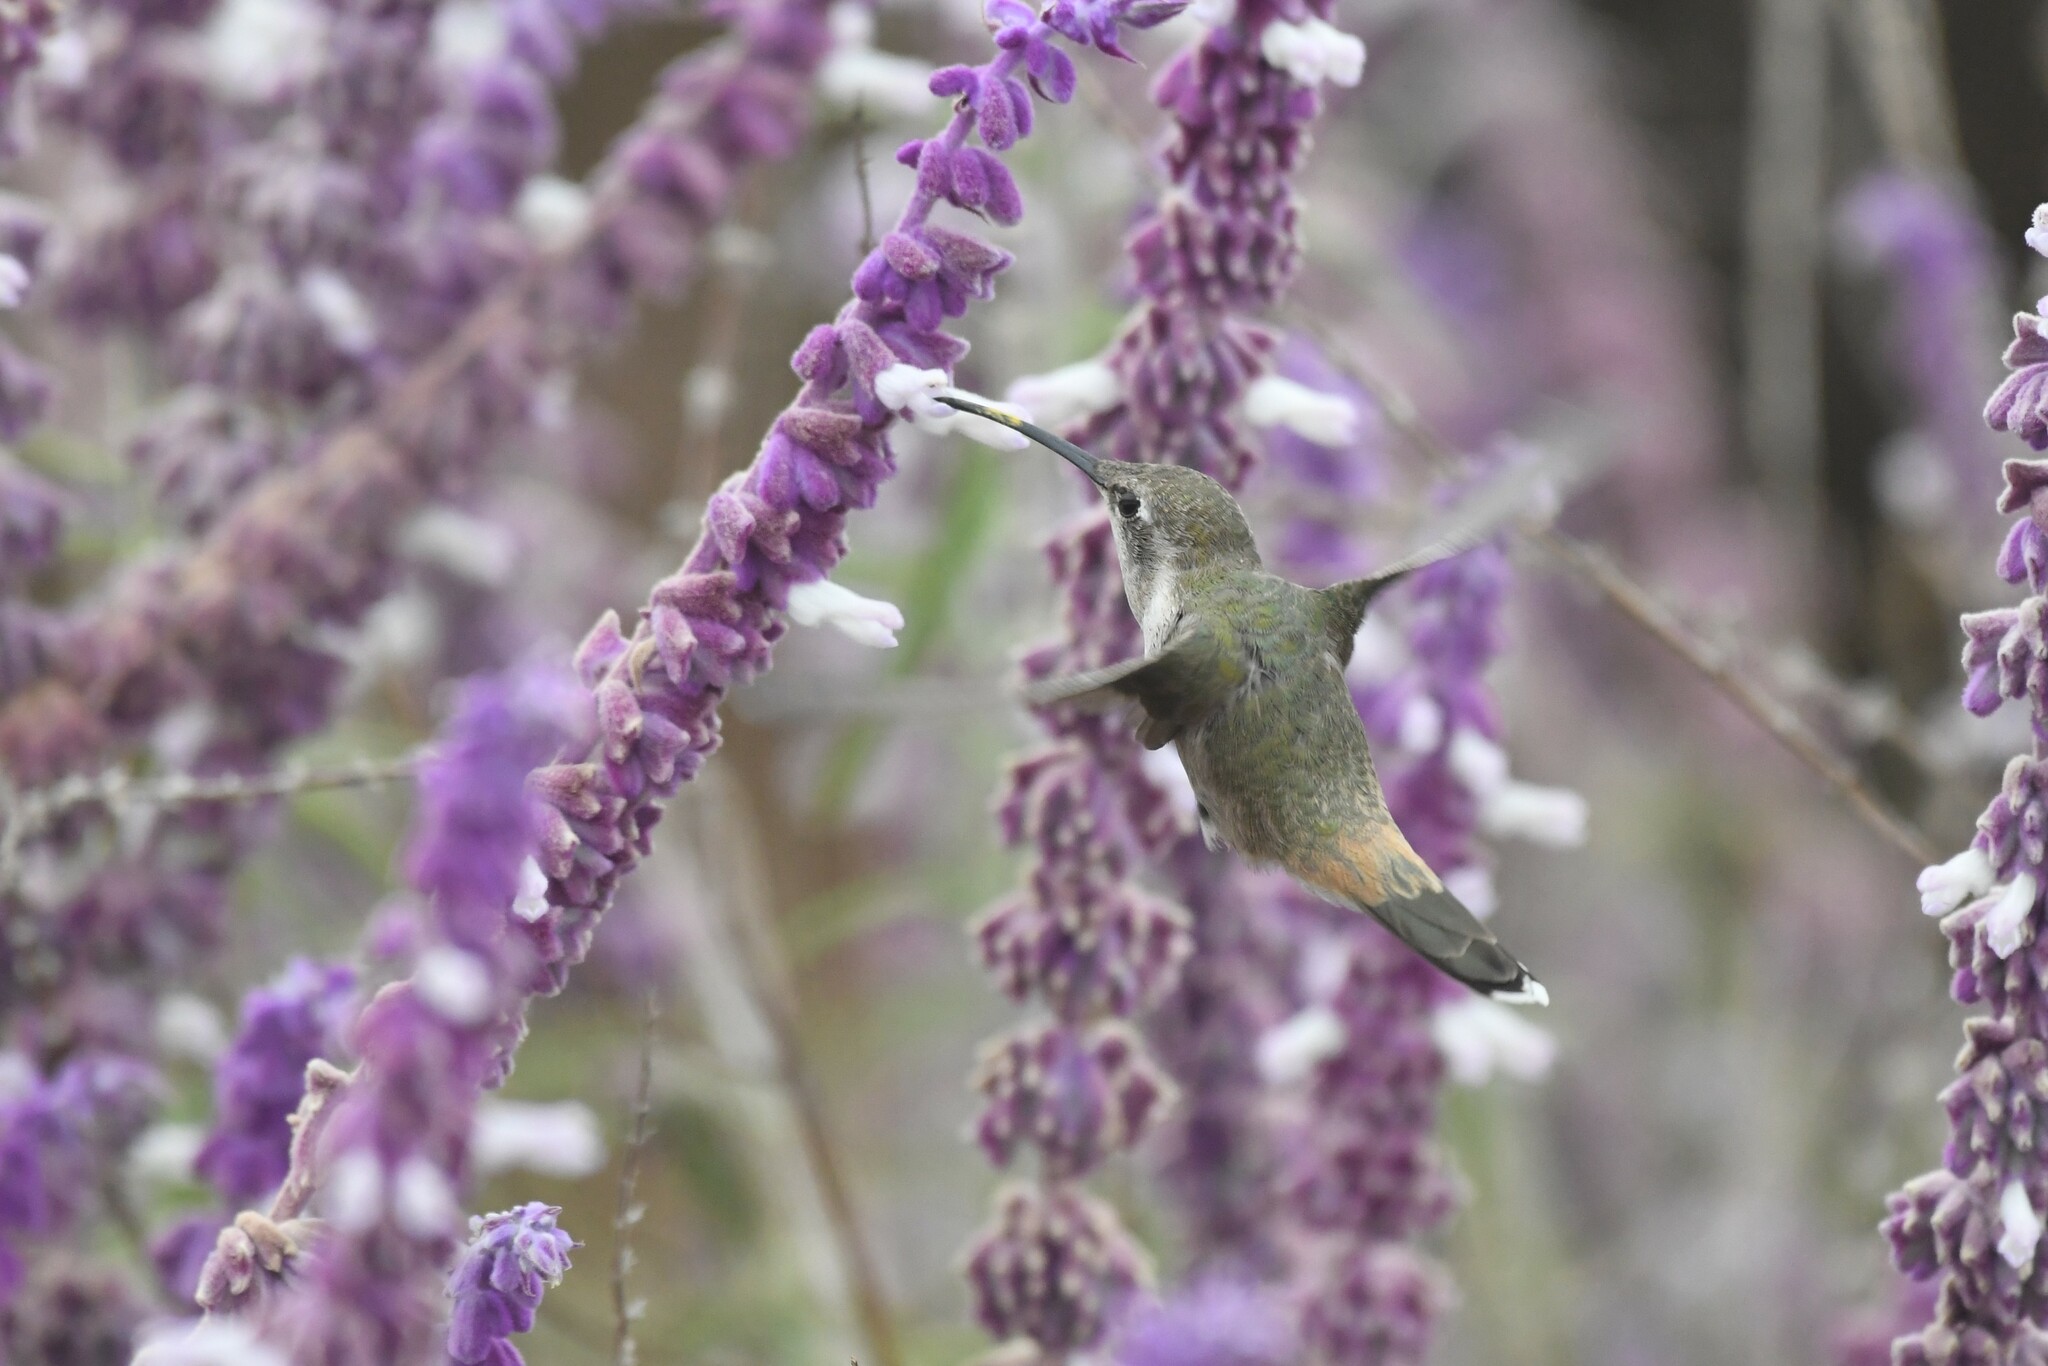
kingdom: Animalia
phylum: Chordata
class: Aves
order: Apodiformes
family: Trochilidae
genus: Rhodopis
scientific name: Rhodopis vesper
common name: Oasis hummingbird
